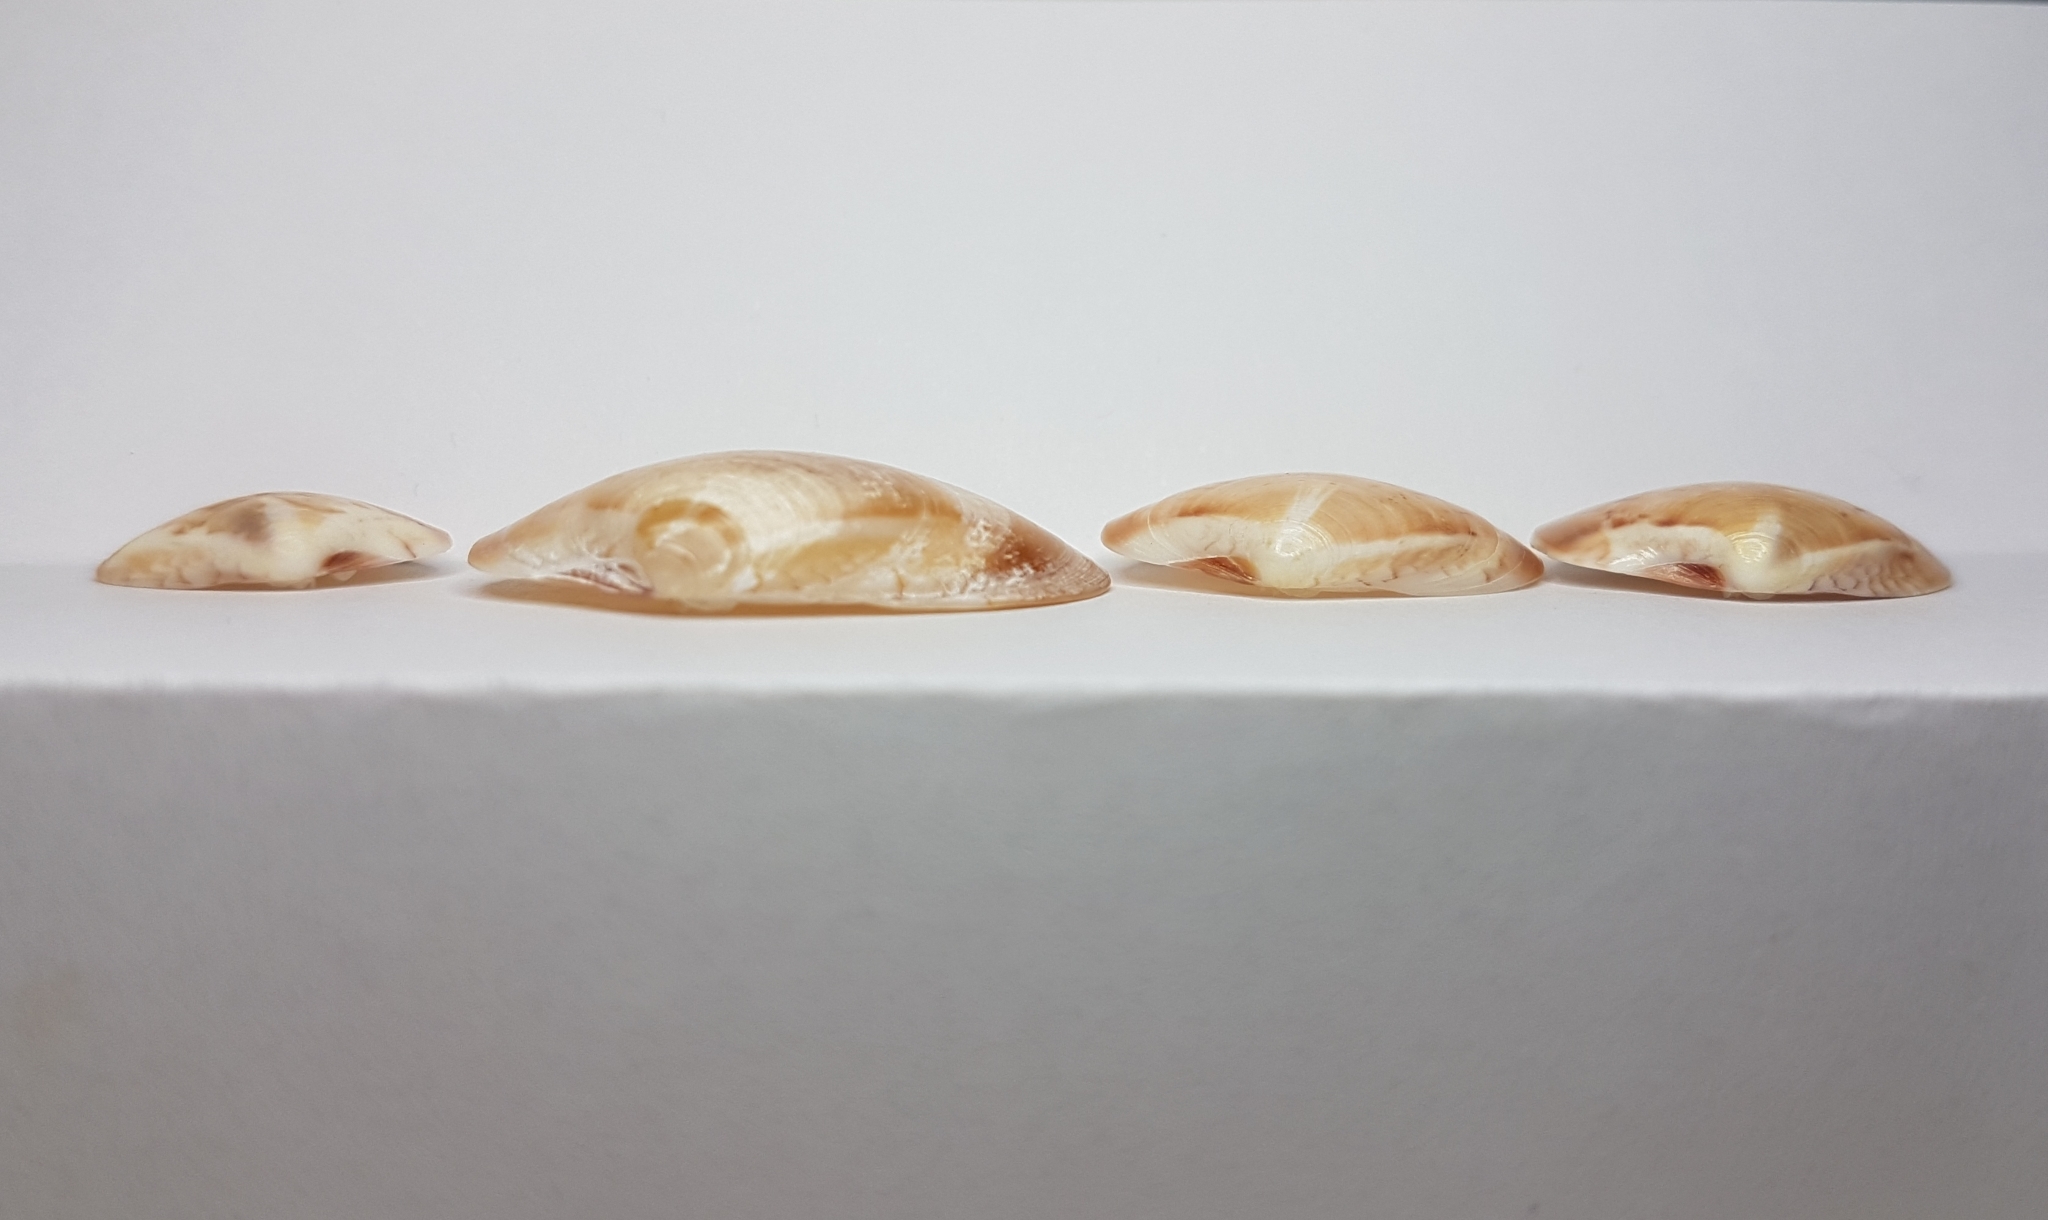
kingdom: Animalia
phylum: Mollusca
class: Bivalvia
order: Venerida
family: Veneridae
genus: Callista
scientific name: Callista chione
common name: Brown venus
